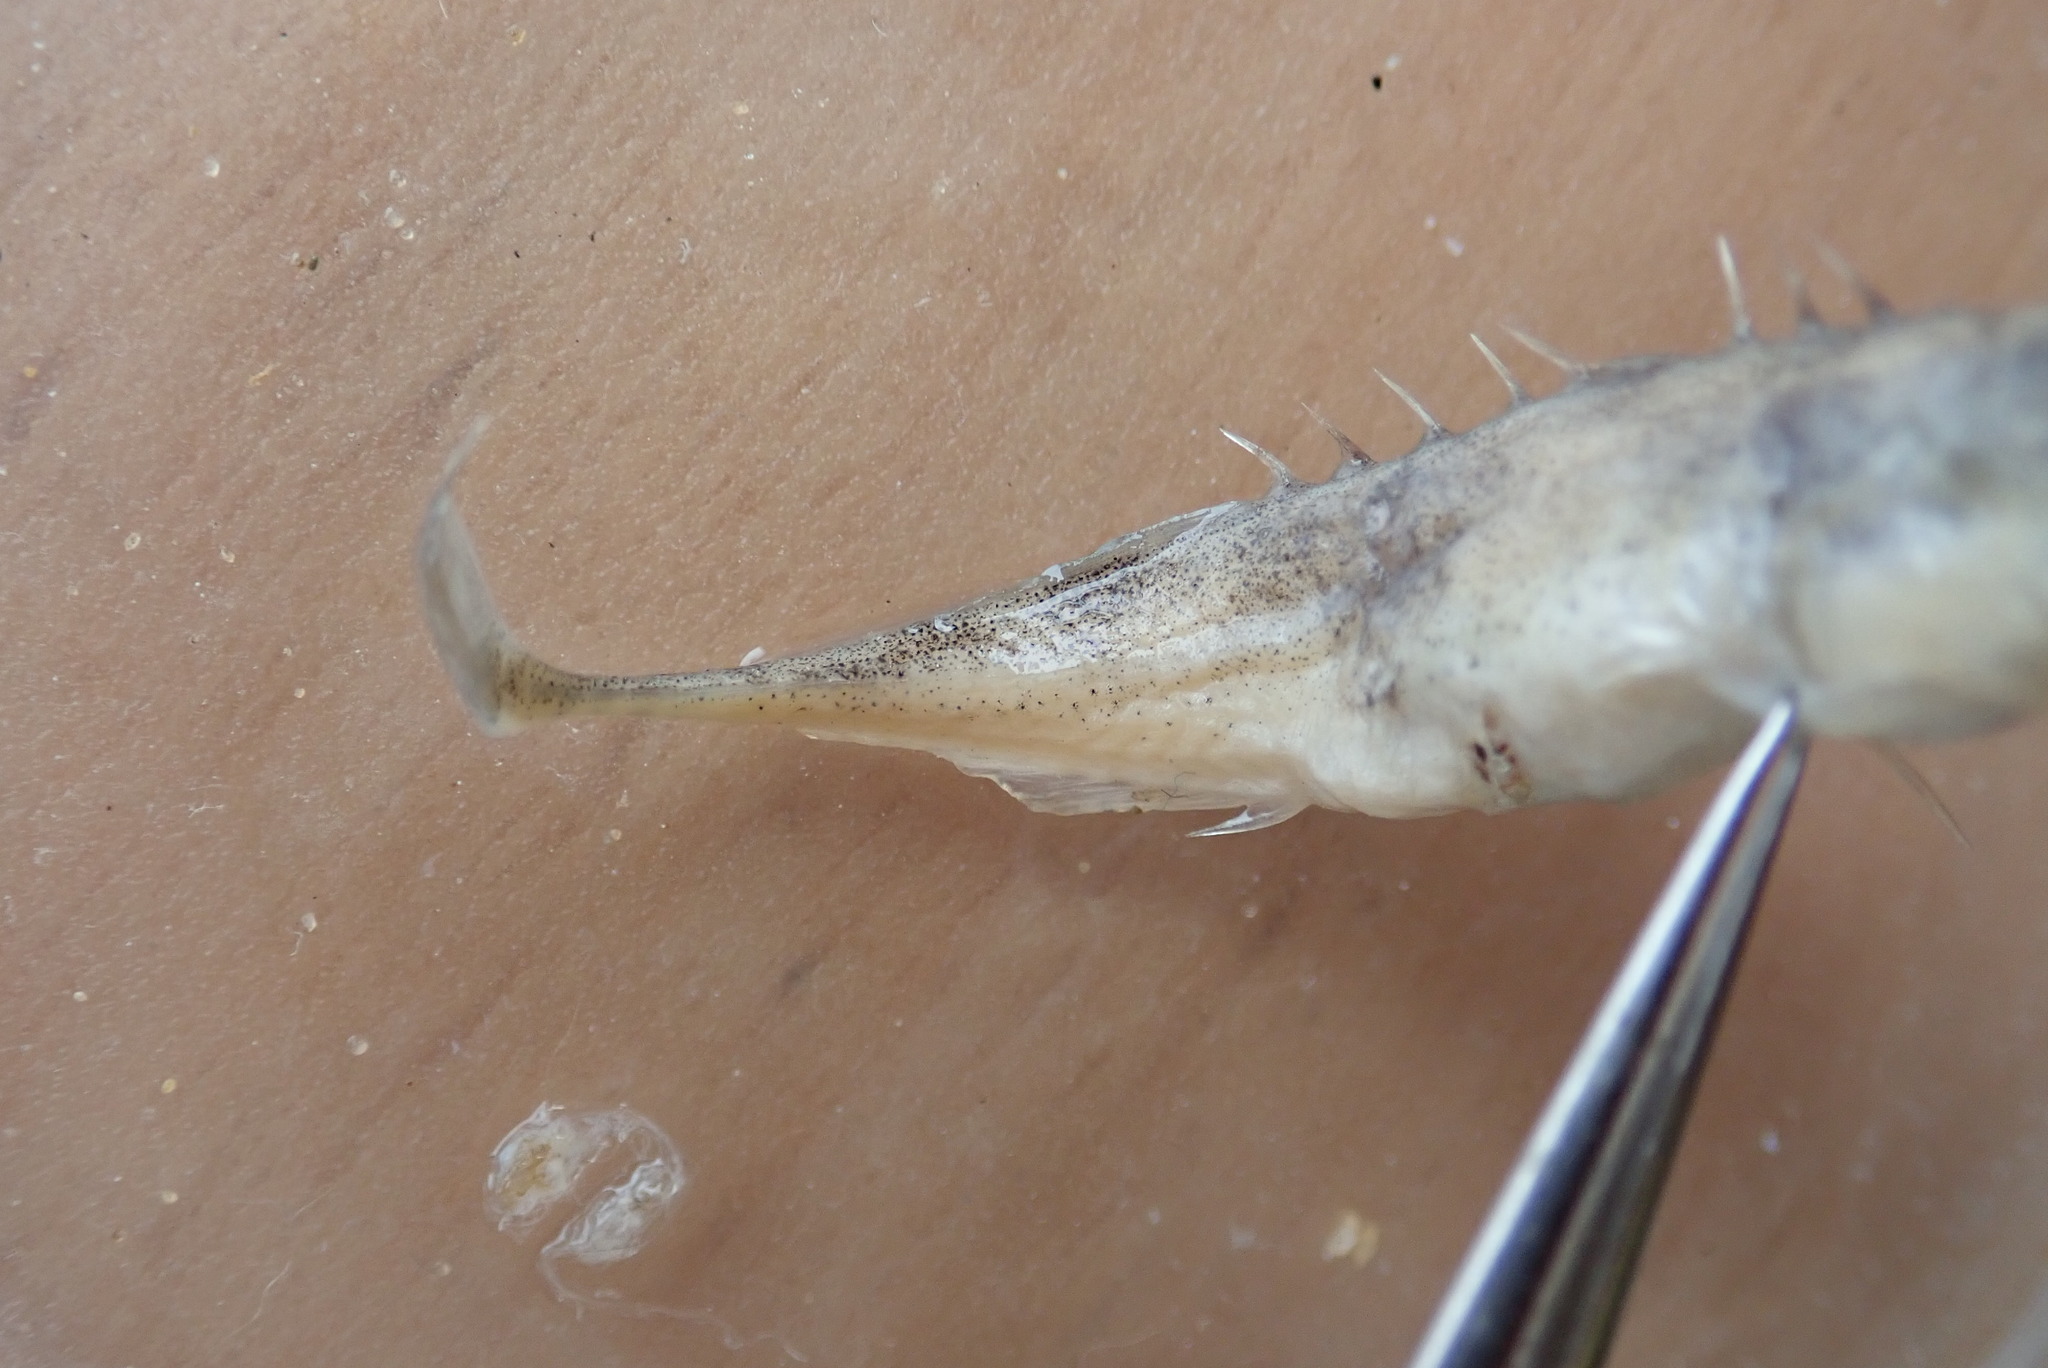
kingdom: Animalia
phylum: Chordata
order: Gasterosteiformes
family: Gasterosteidae
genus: Pungitius
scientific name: Pungitius pungitius
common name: Nine-spined stickleback
